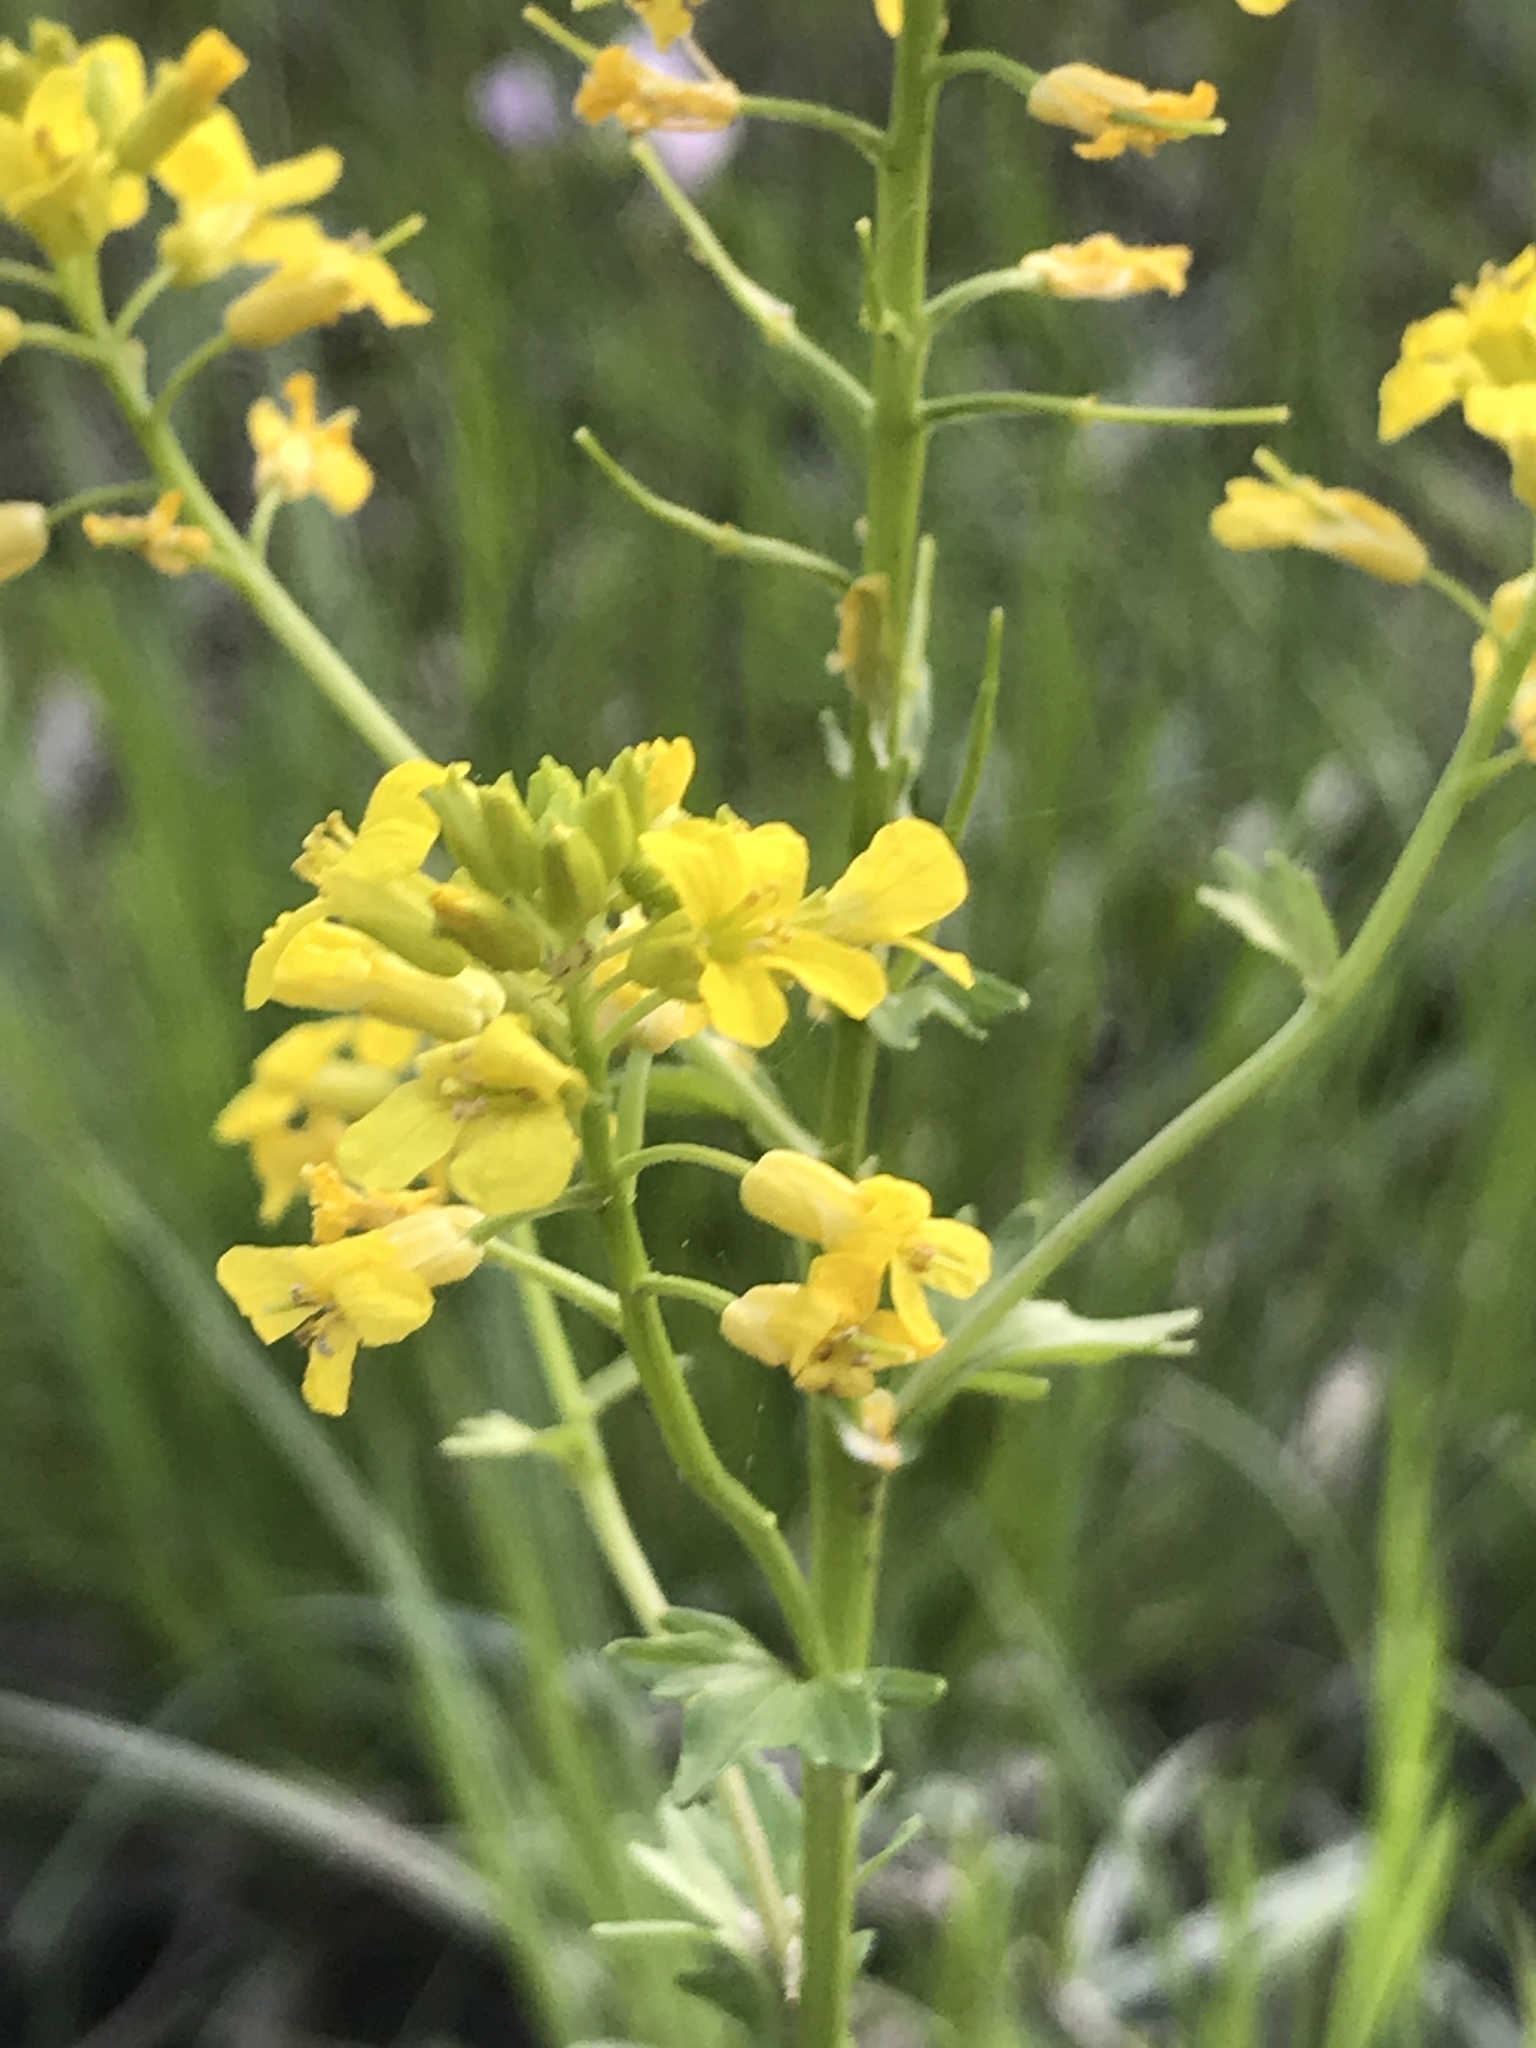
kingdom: Plantae
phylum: Tracheophyta
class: Magnoliopsida
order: Brassicales
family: Brassicaceae
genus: Barbarea
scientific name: Barbarea vulgaris
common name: Cressy-greens
